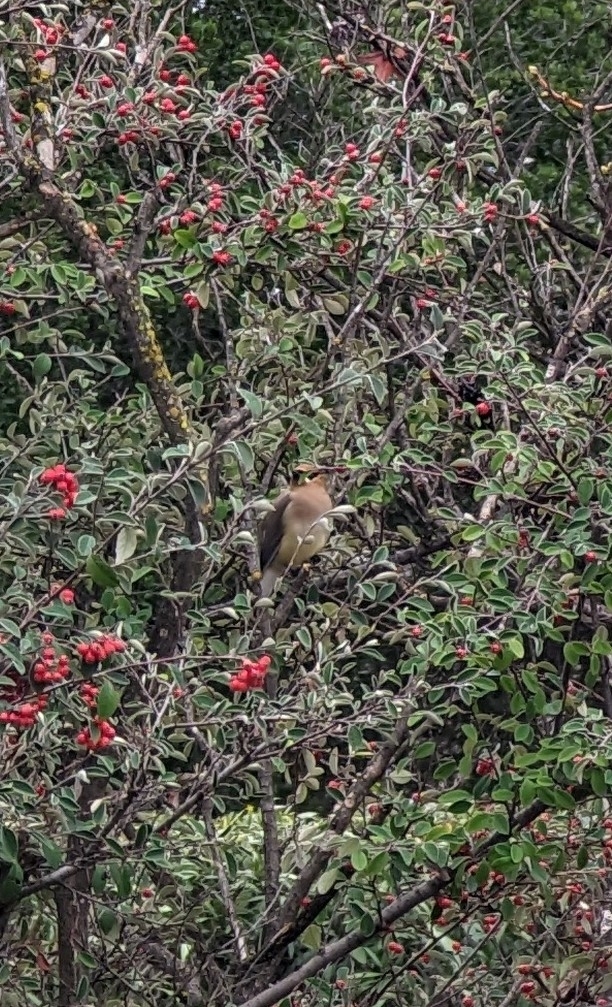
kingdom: Animalia
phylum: Chordata
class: Aves
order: Passeriformes
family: Bombycillidae
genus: Bombycilla
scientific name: Bombycilla cedrorum
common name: Cedar waxwing
